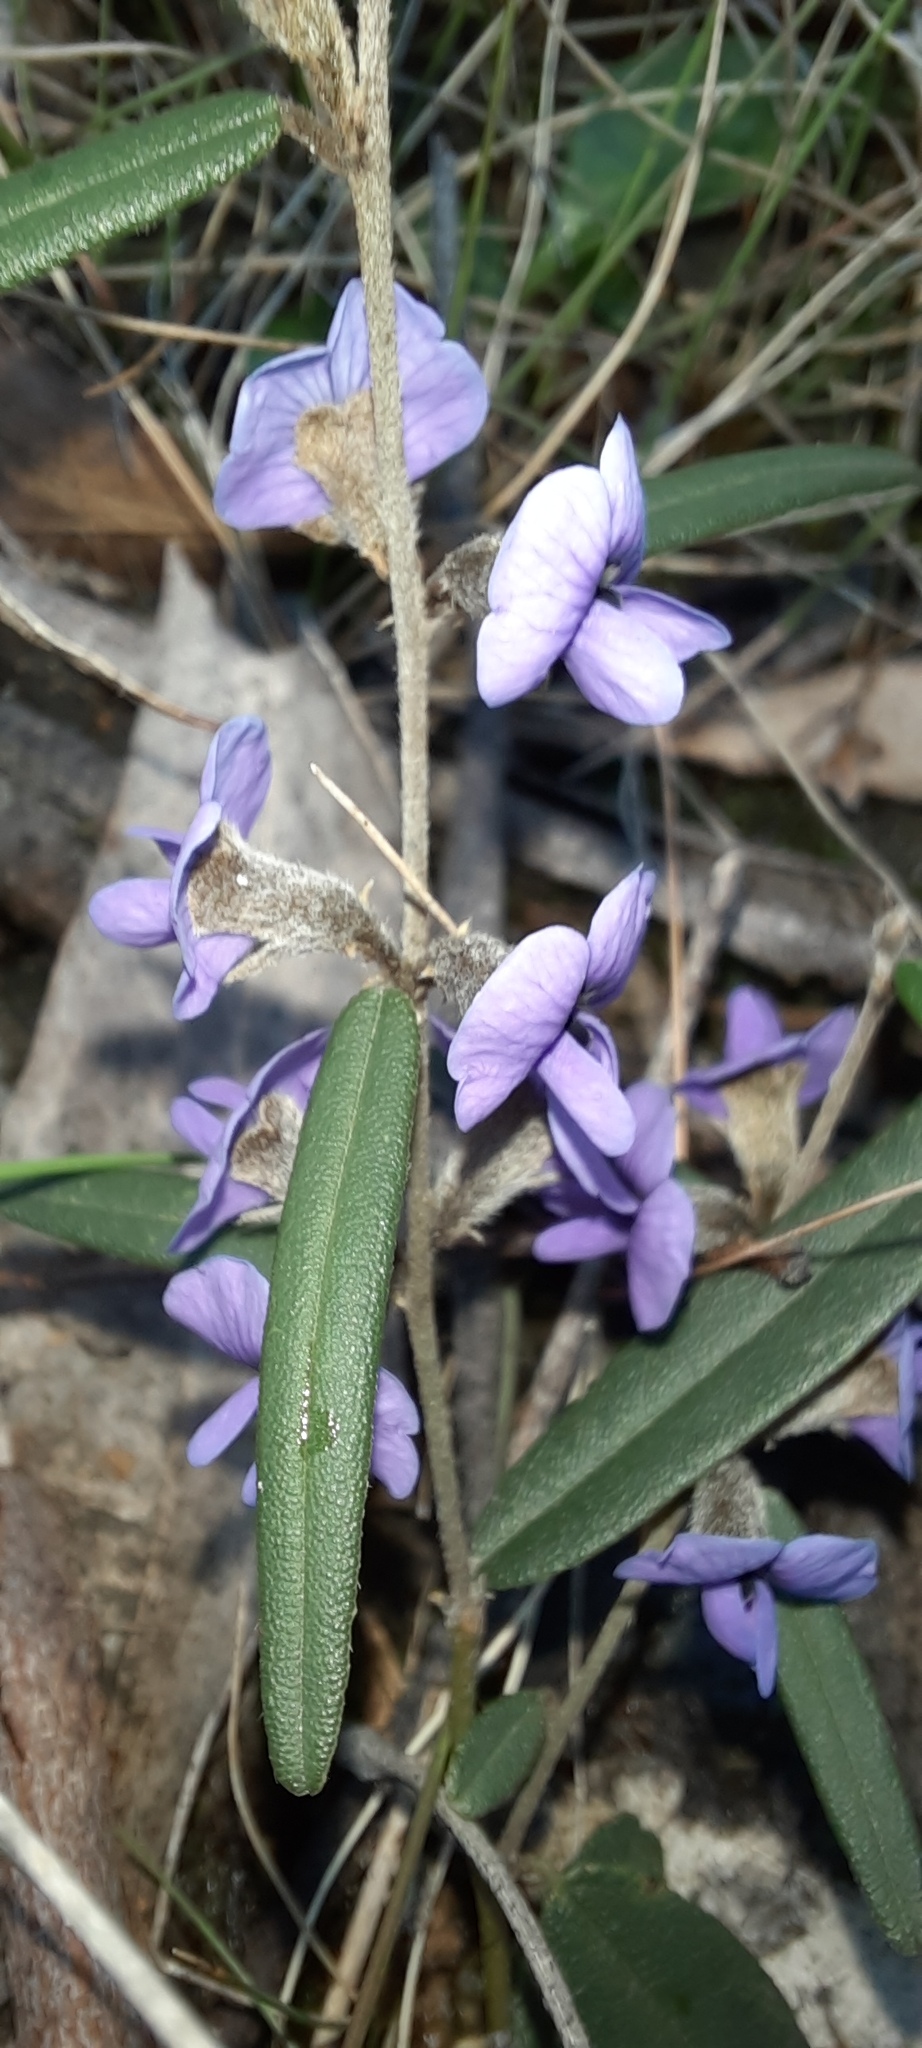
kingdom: Plantae
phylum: Tracheophyta
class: Magnoliopsida
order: Fabales
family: Fabaceae
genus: Hovea
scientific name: Hovea heterophylla
